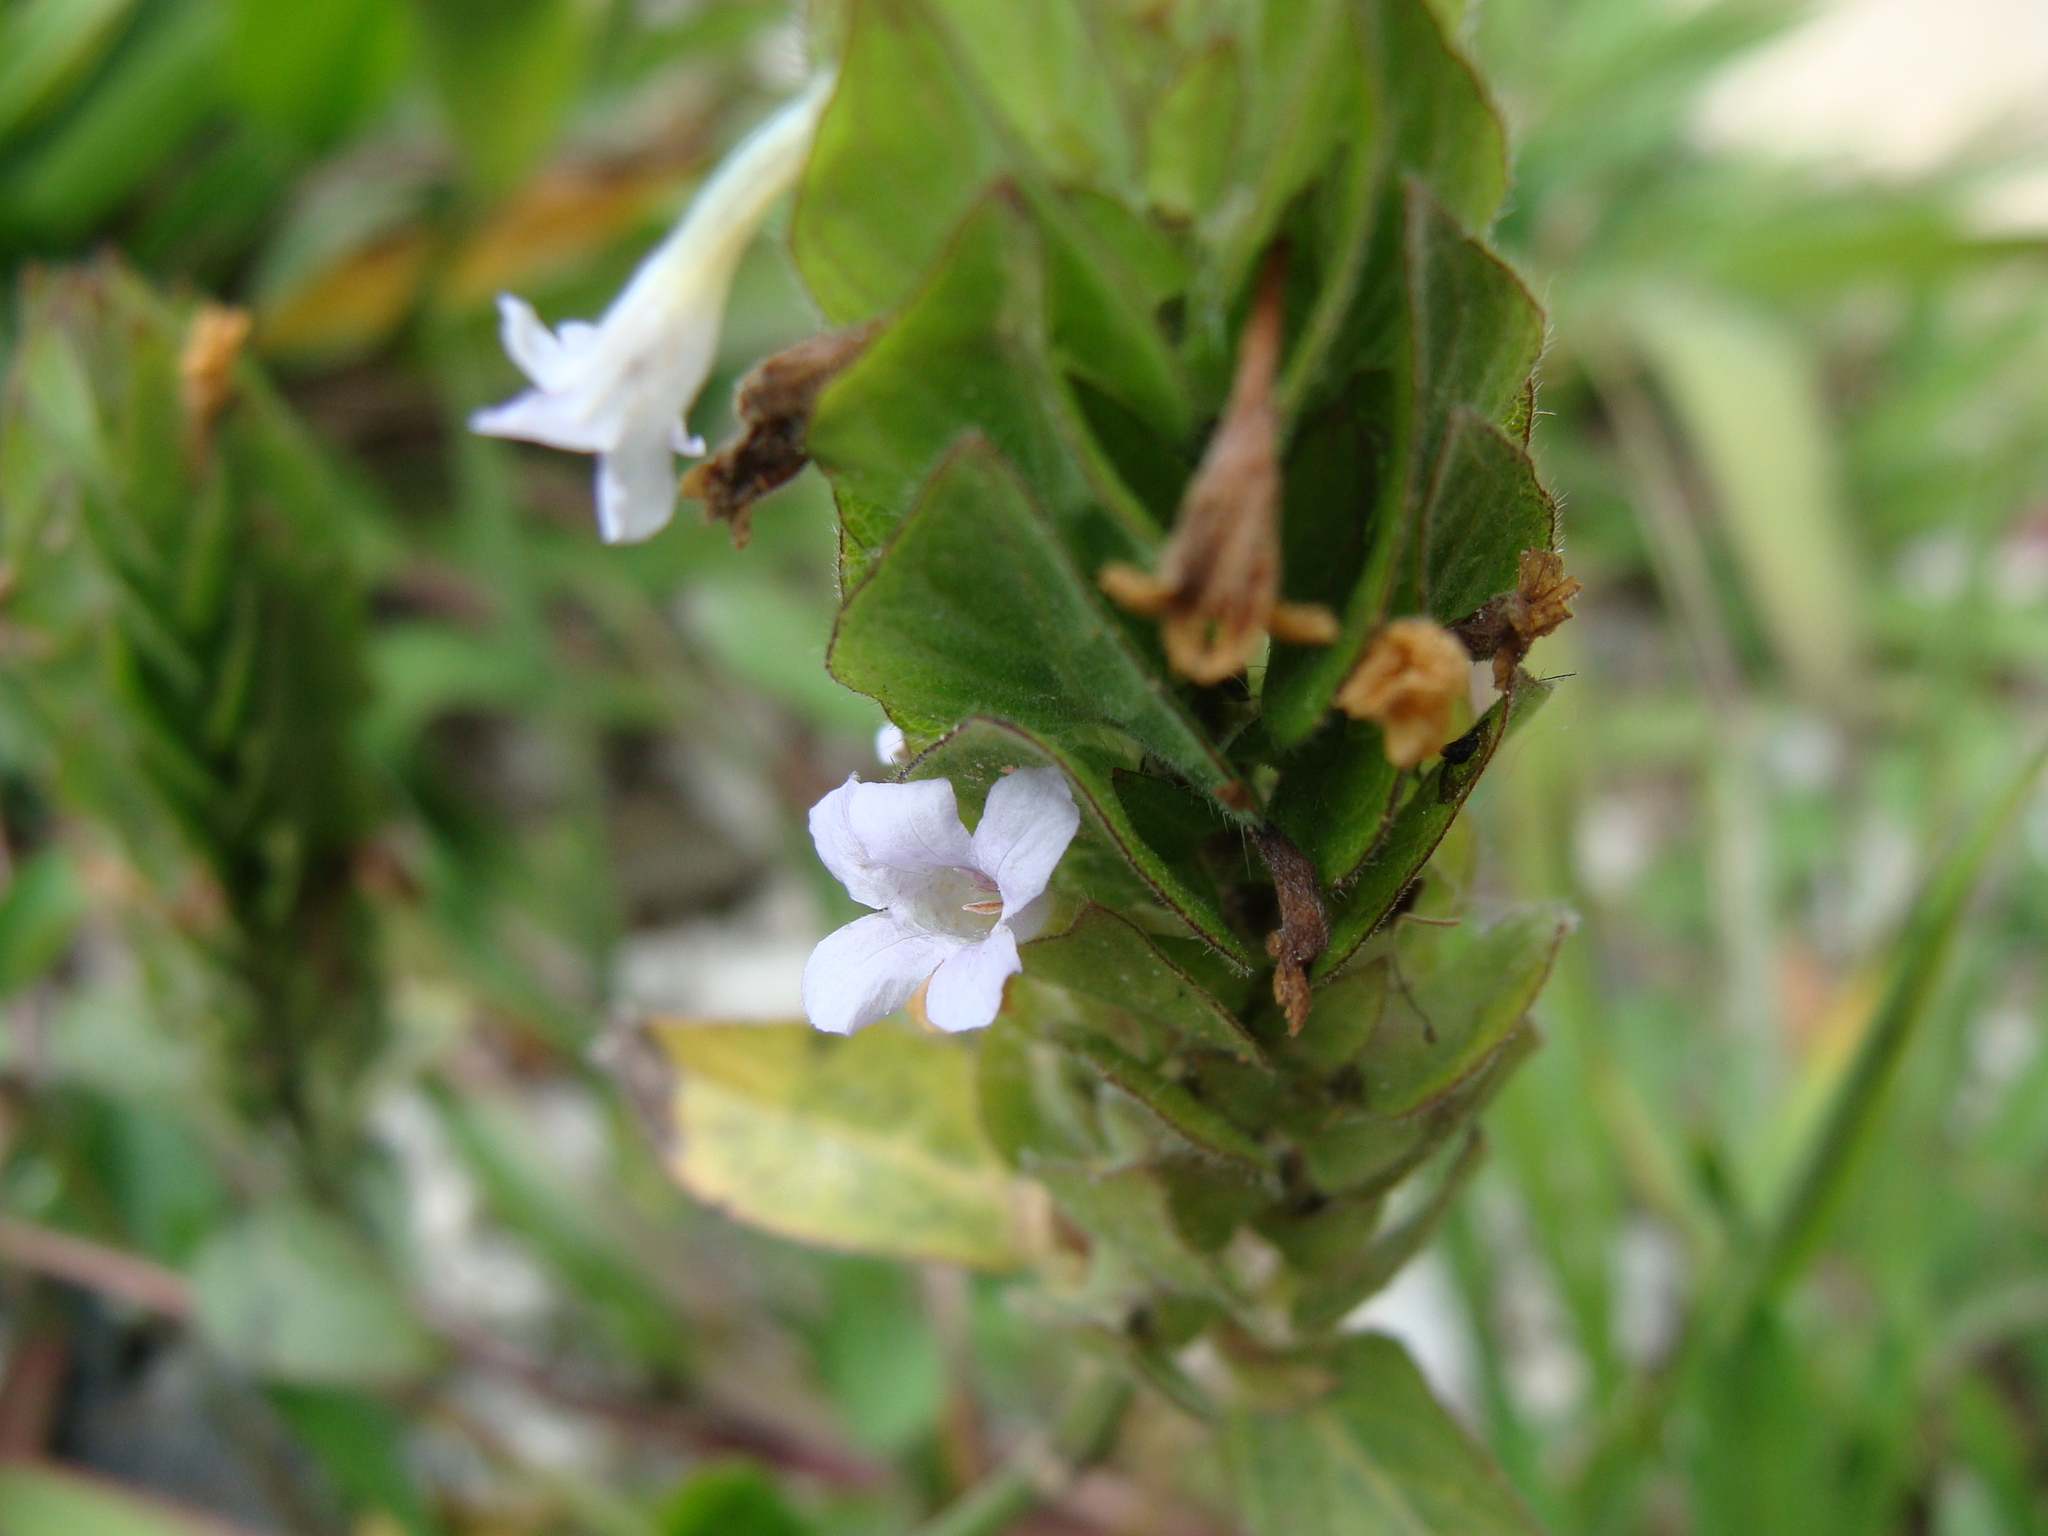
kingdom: Plantae
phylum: Tracheophyta
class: Magnoliopsida
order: Lamiales
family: Acanthaceae
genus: Ruellia
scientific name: Ruellia blechum
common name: Browne's blechum
